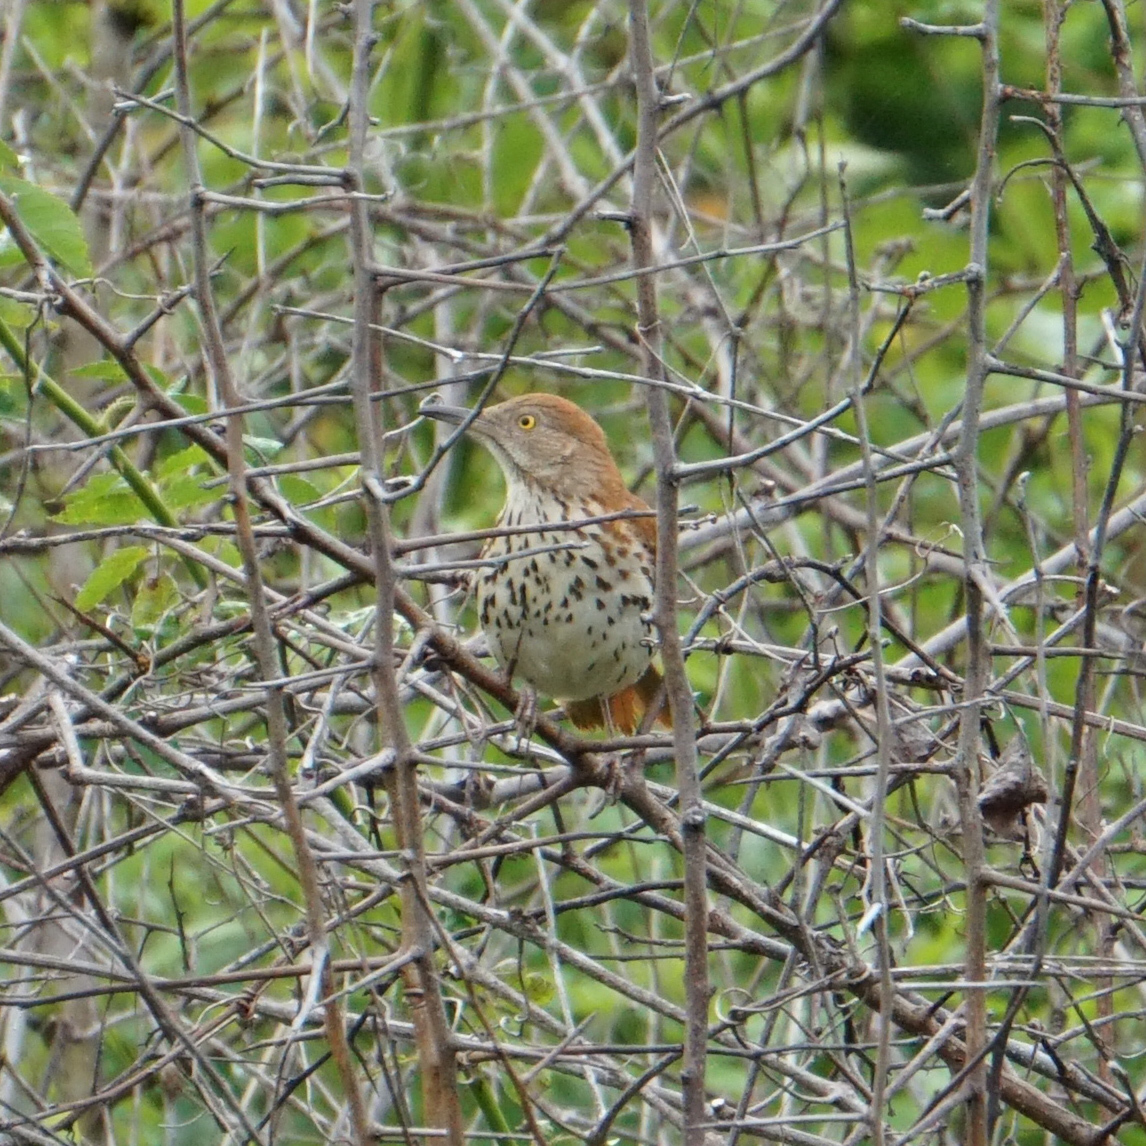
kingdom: Animalia
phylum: Chordata
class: Aves
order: Passeriformes
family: Mimidae
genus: Toxostoma
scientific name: Toxostoma rufum
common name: Brown thrasher
